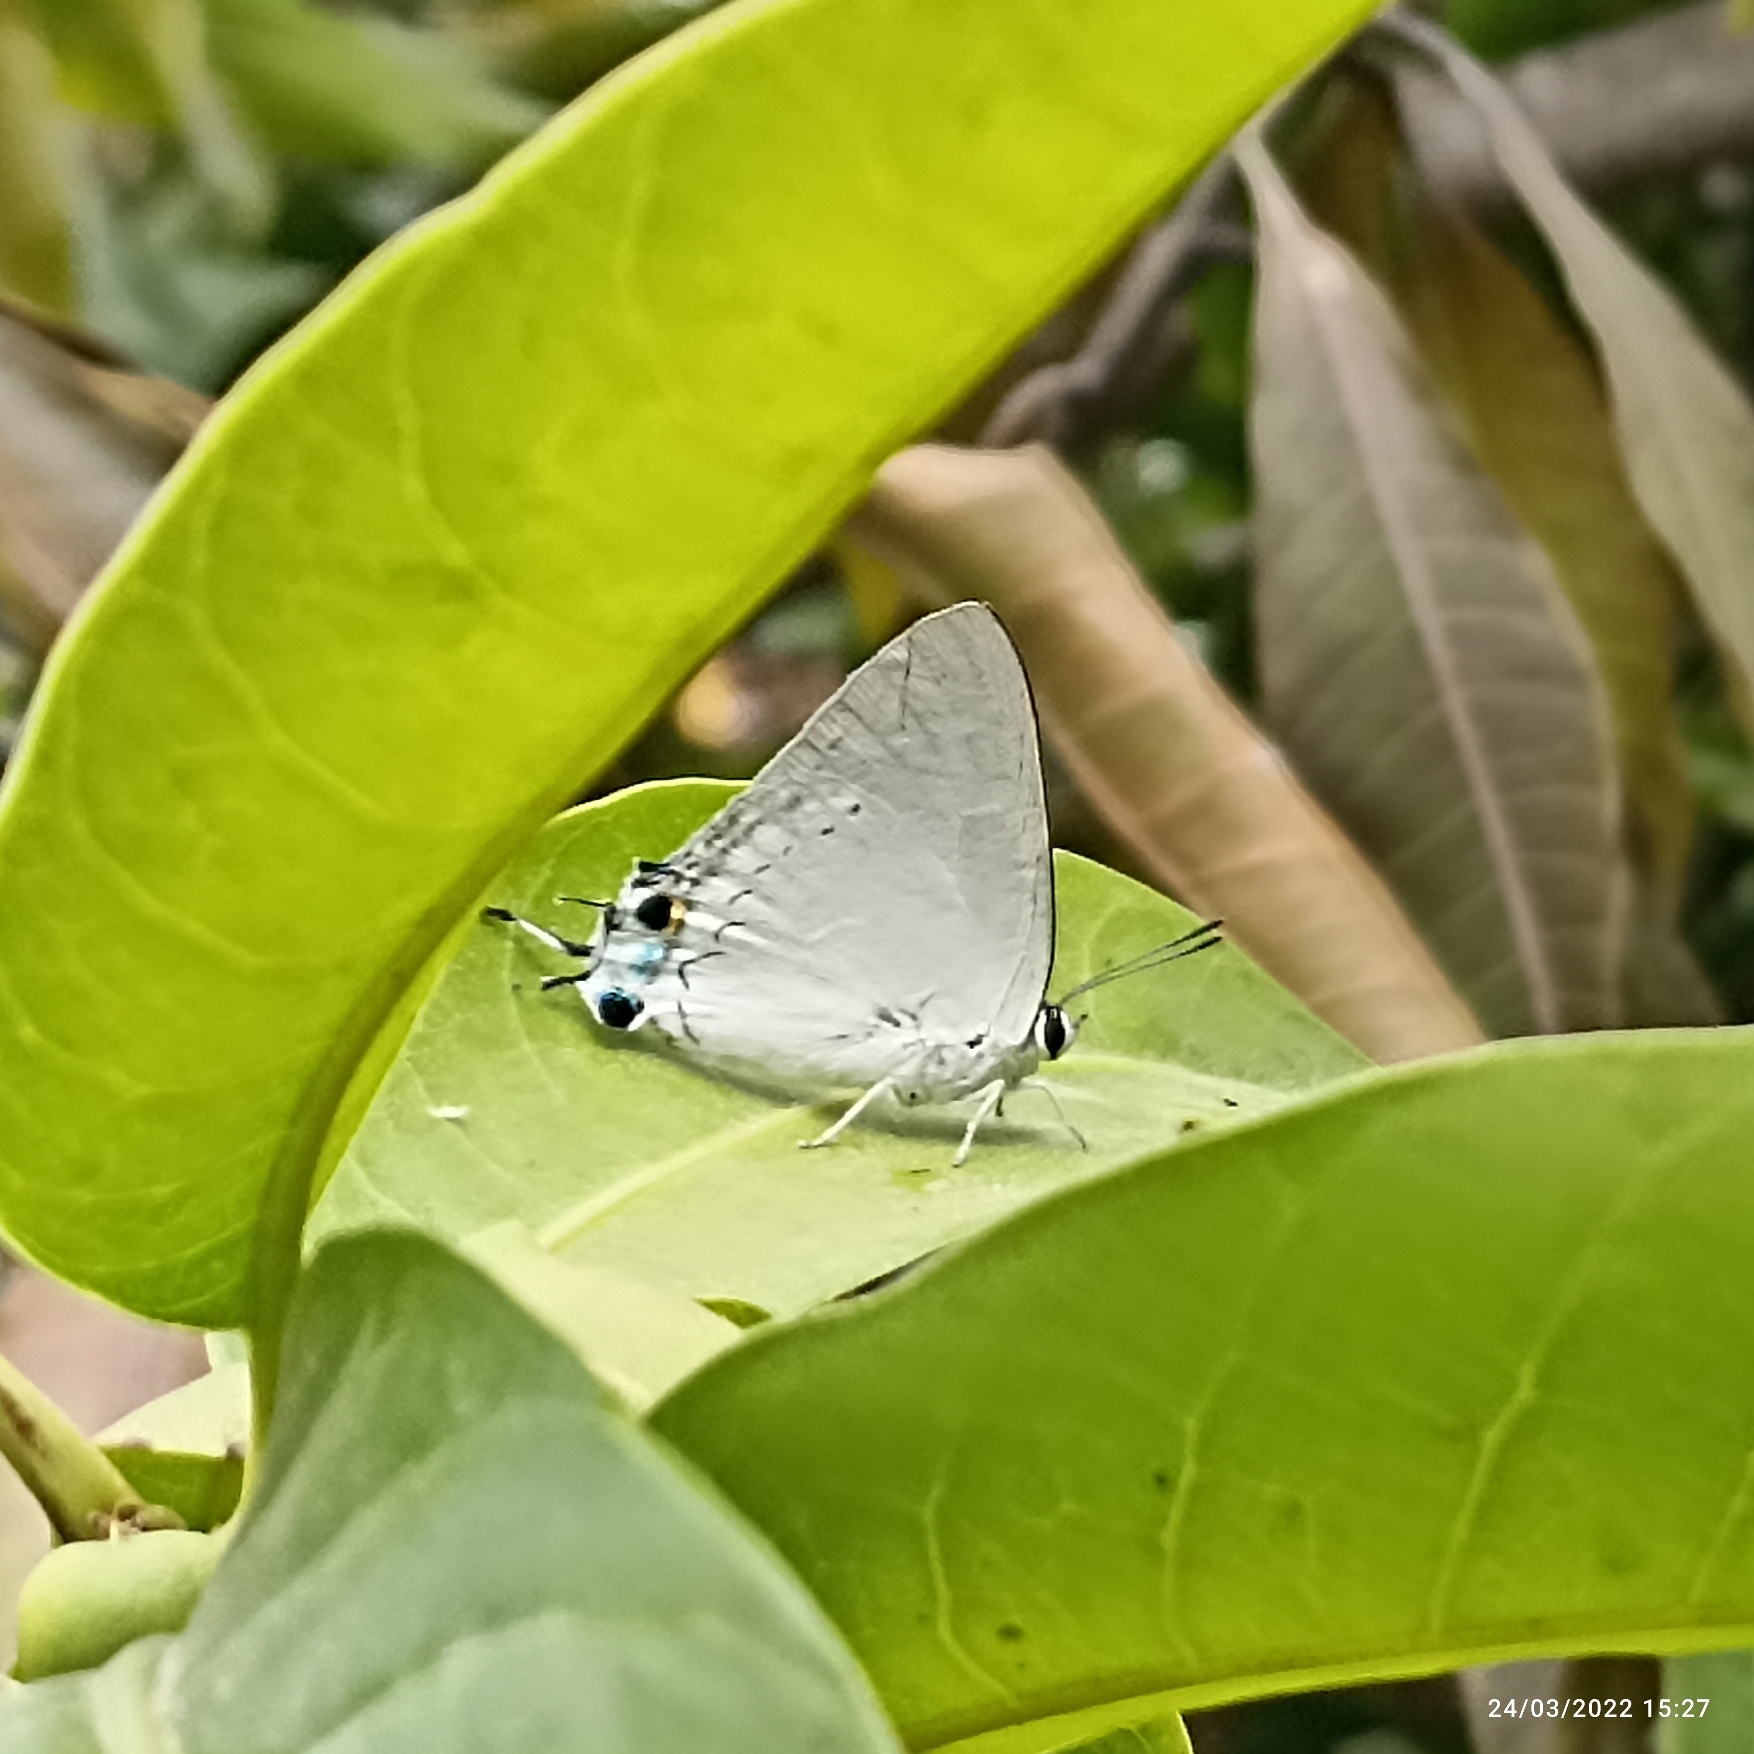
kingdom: Animalia
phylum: Arthropoda
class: Insecta
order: Lepidoptera
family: Lycaenidae
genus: Tajuria
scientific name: Tajuria cippus
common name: Peacock royal
